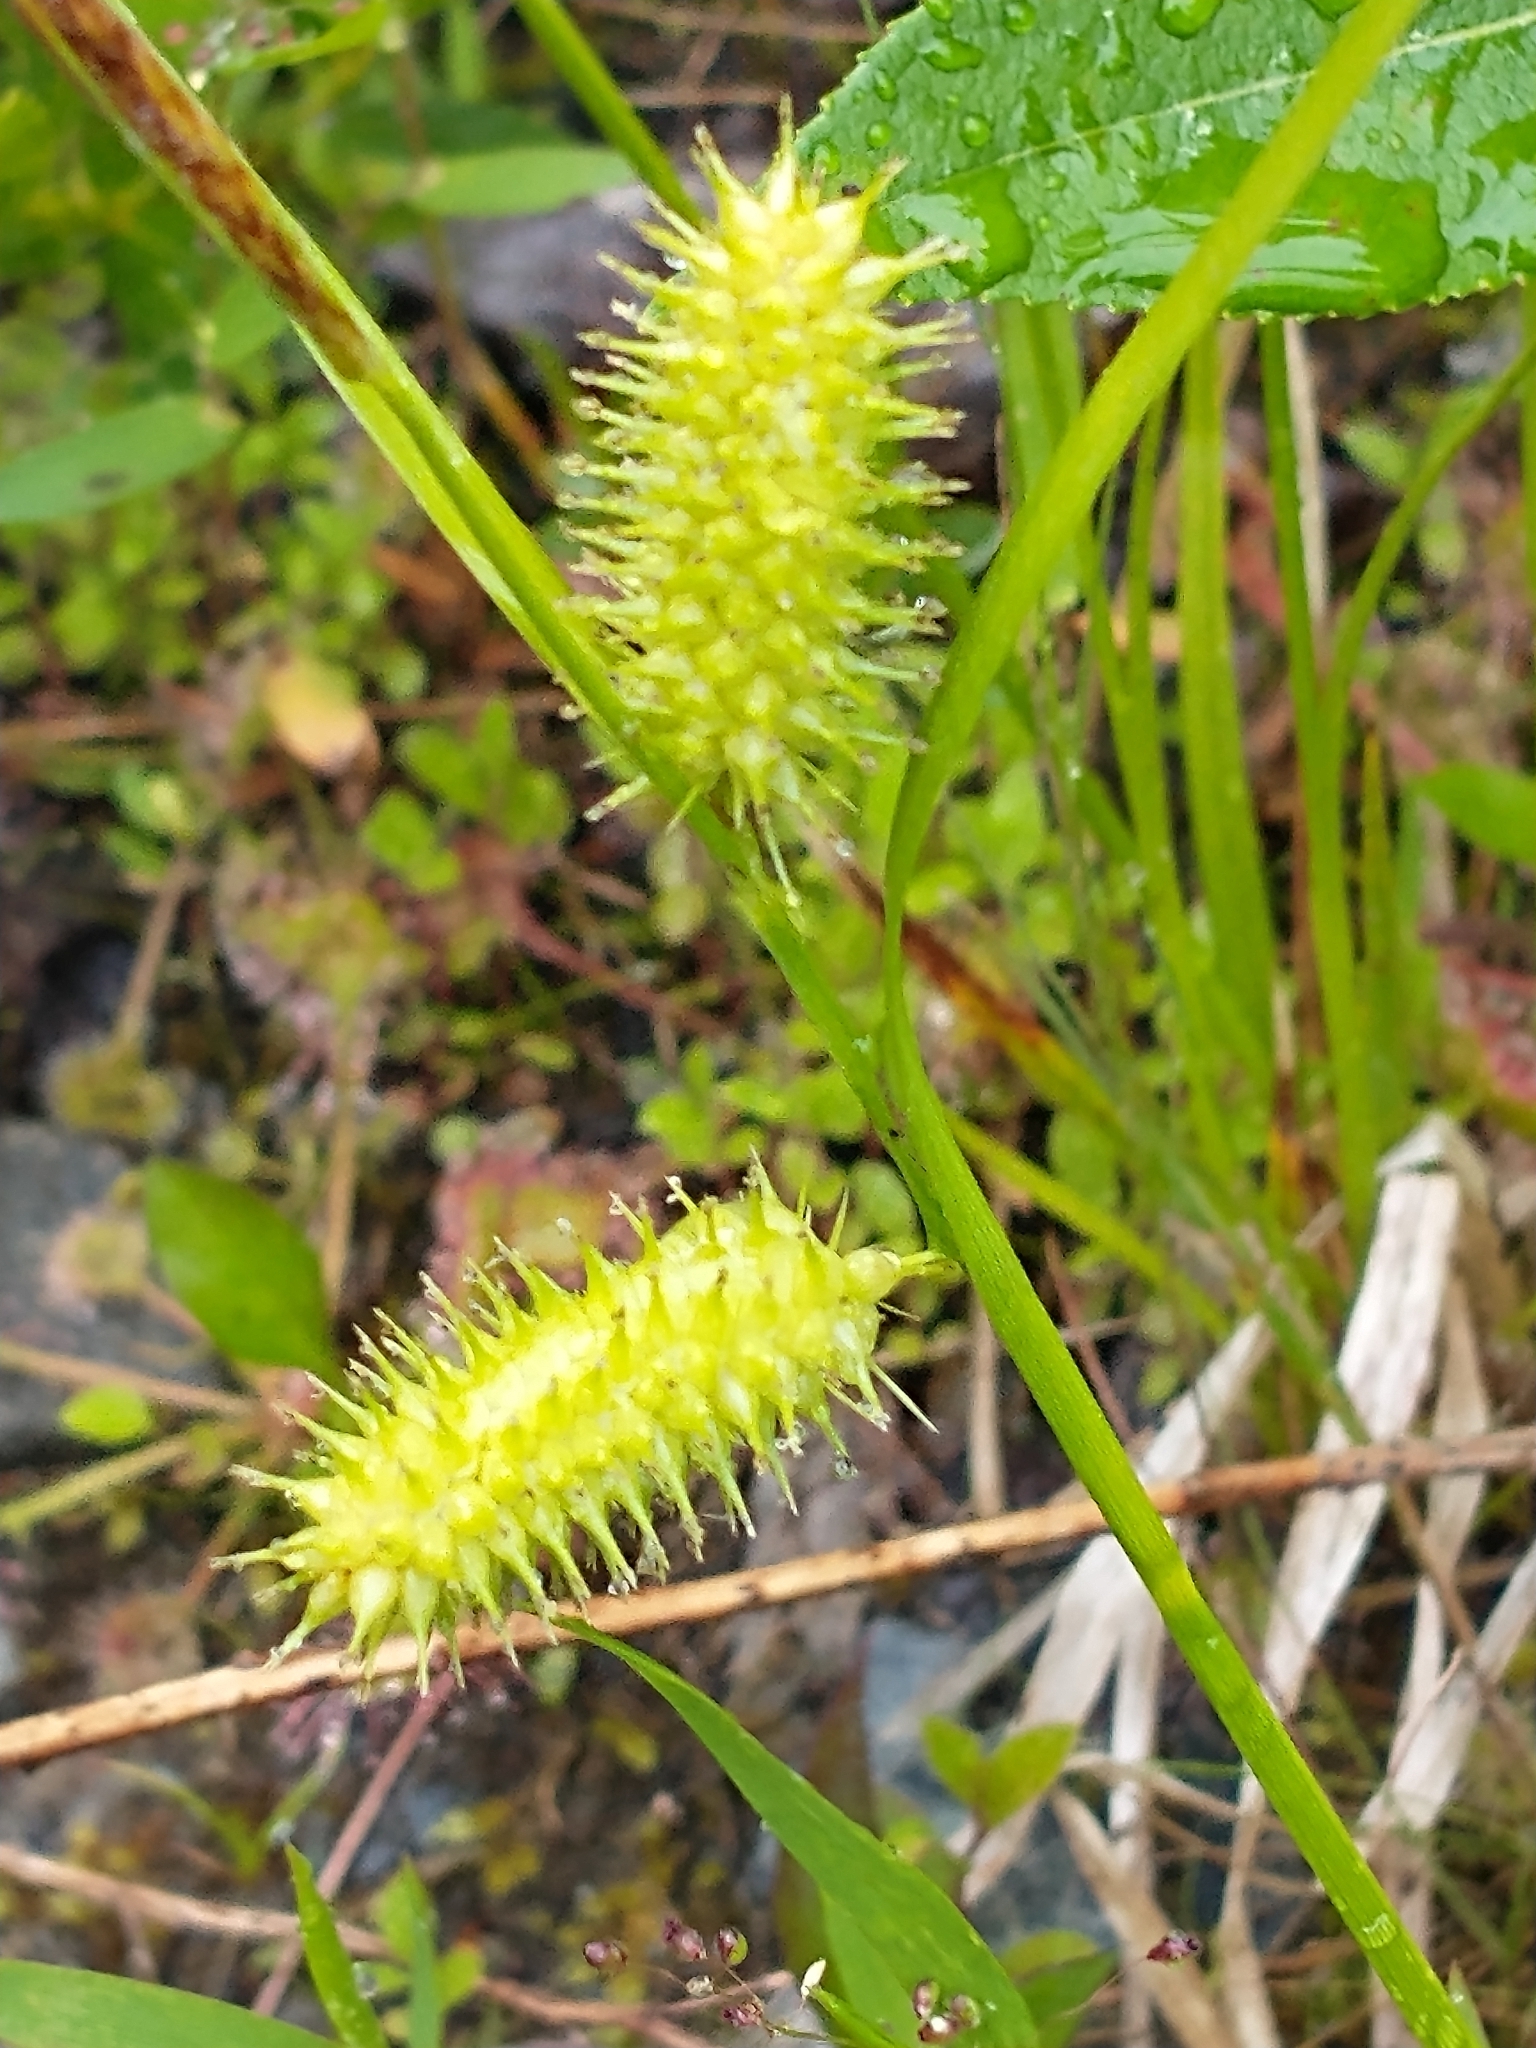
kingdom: Plantae
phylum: Tracheophyta
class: Liliopsida
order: Poales
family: Cyperaceae
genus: Carex
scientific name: Carex hystericina
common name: Bottlebrush sedge
